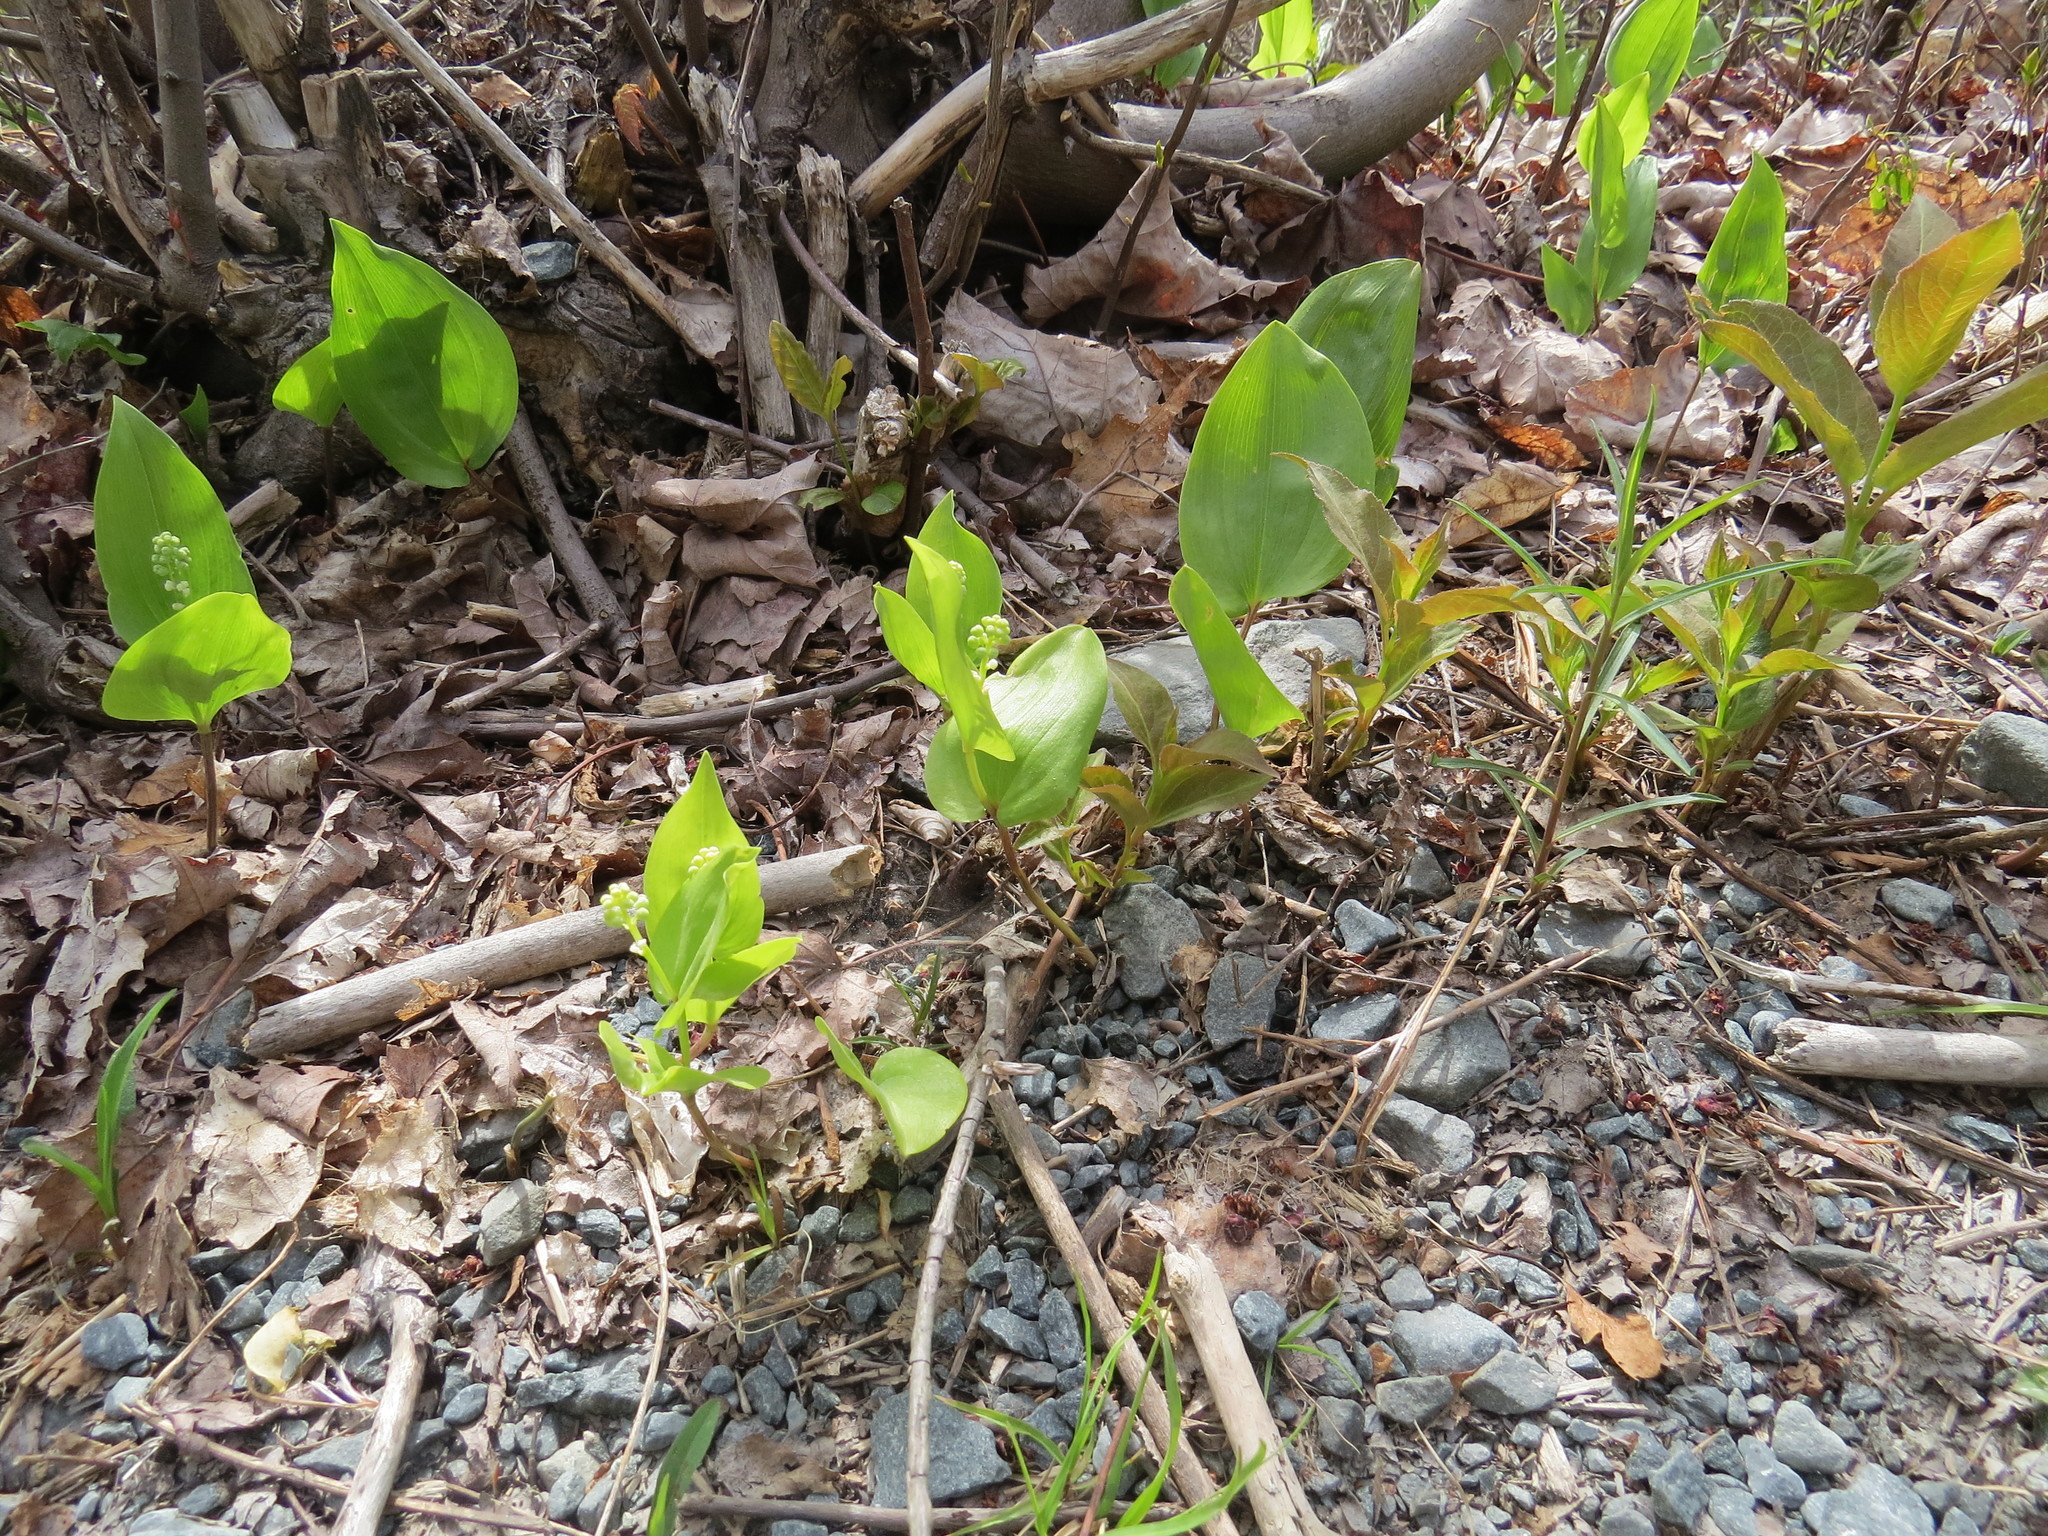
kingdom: Plantae
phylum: Tracheophyta
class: Liliopsida
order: Asparagales
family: Asparagaceae
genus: Maianthemum
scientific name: Maianthemum canadense
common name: False lily-of-the-valley
